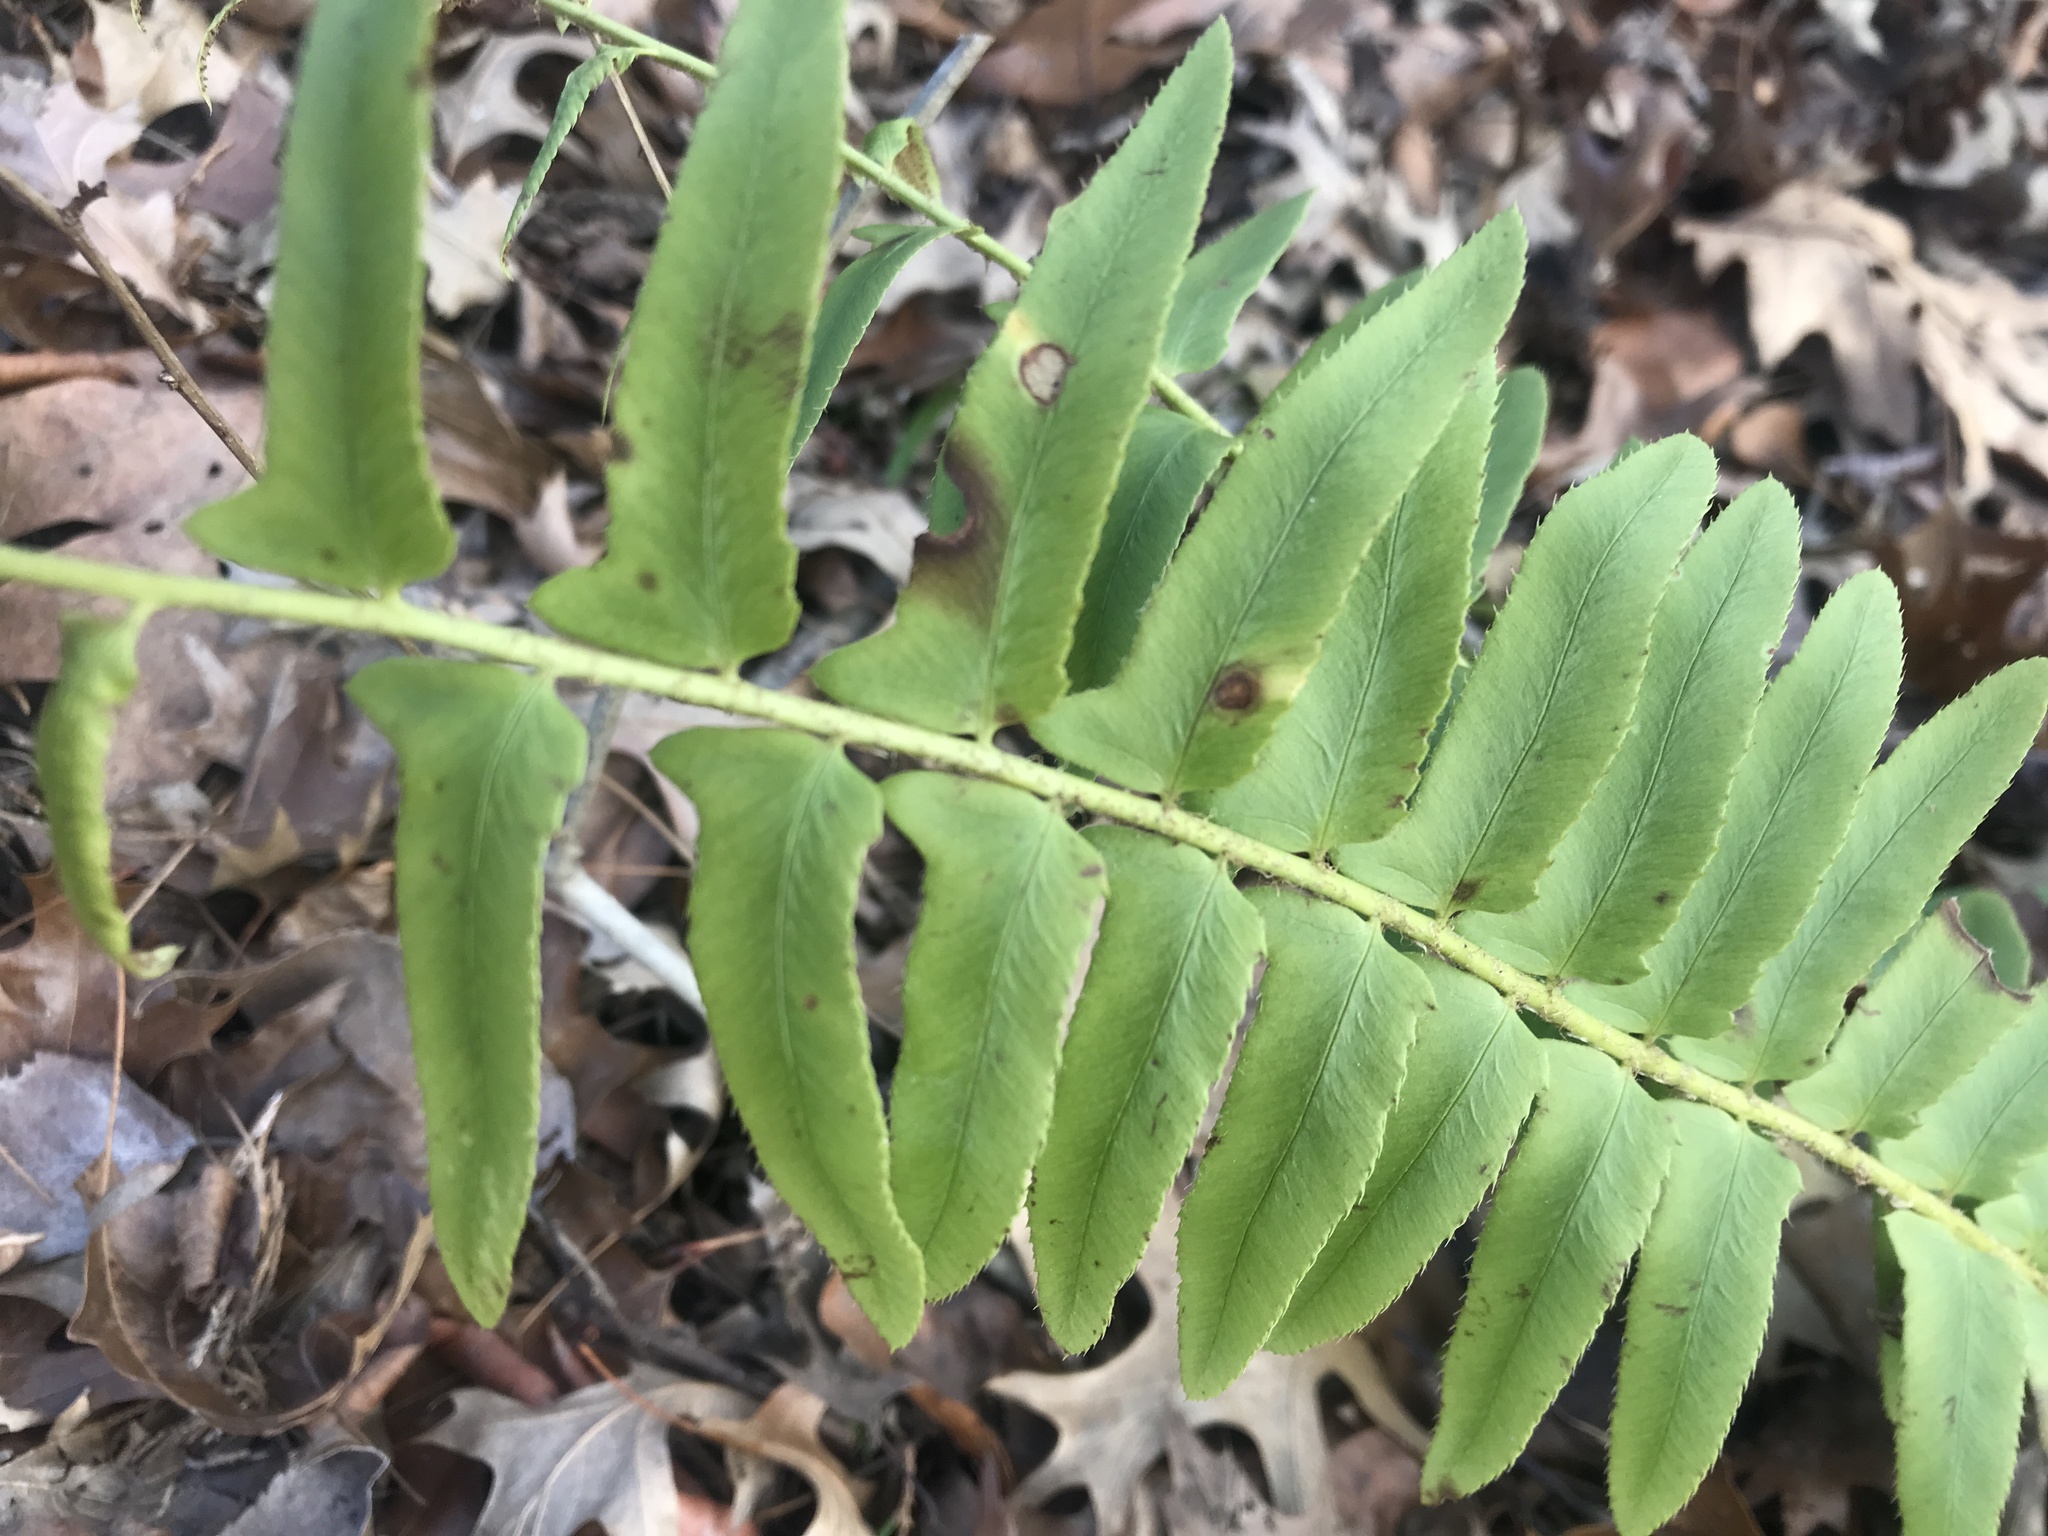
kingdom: Plantae
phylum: Tracheophyta
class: Polypodiopsida
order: Polypodiales
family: Dryopteridaceae
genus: Polystichum
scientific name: Polystichum acrostichoides
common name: Christmas fern
